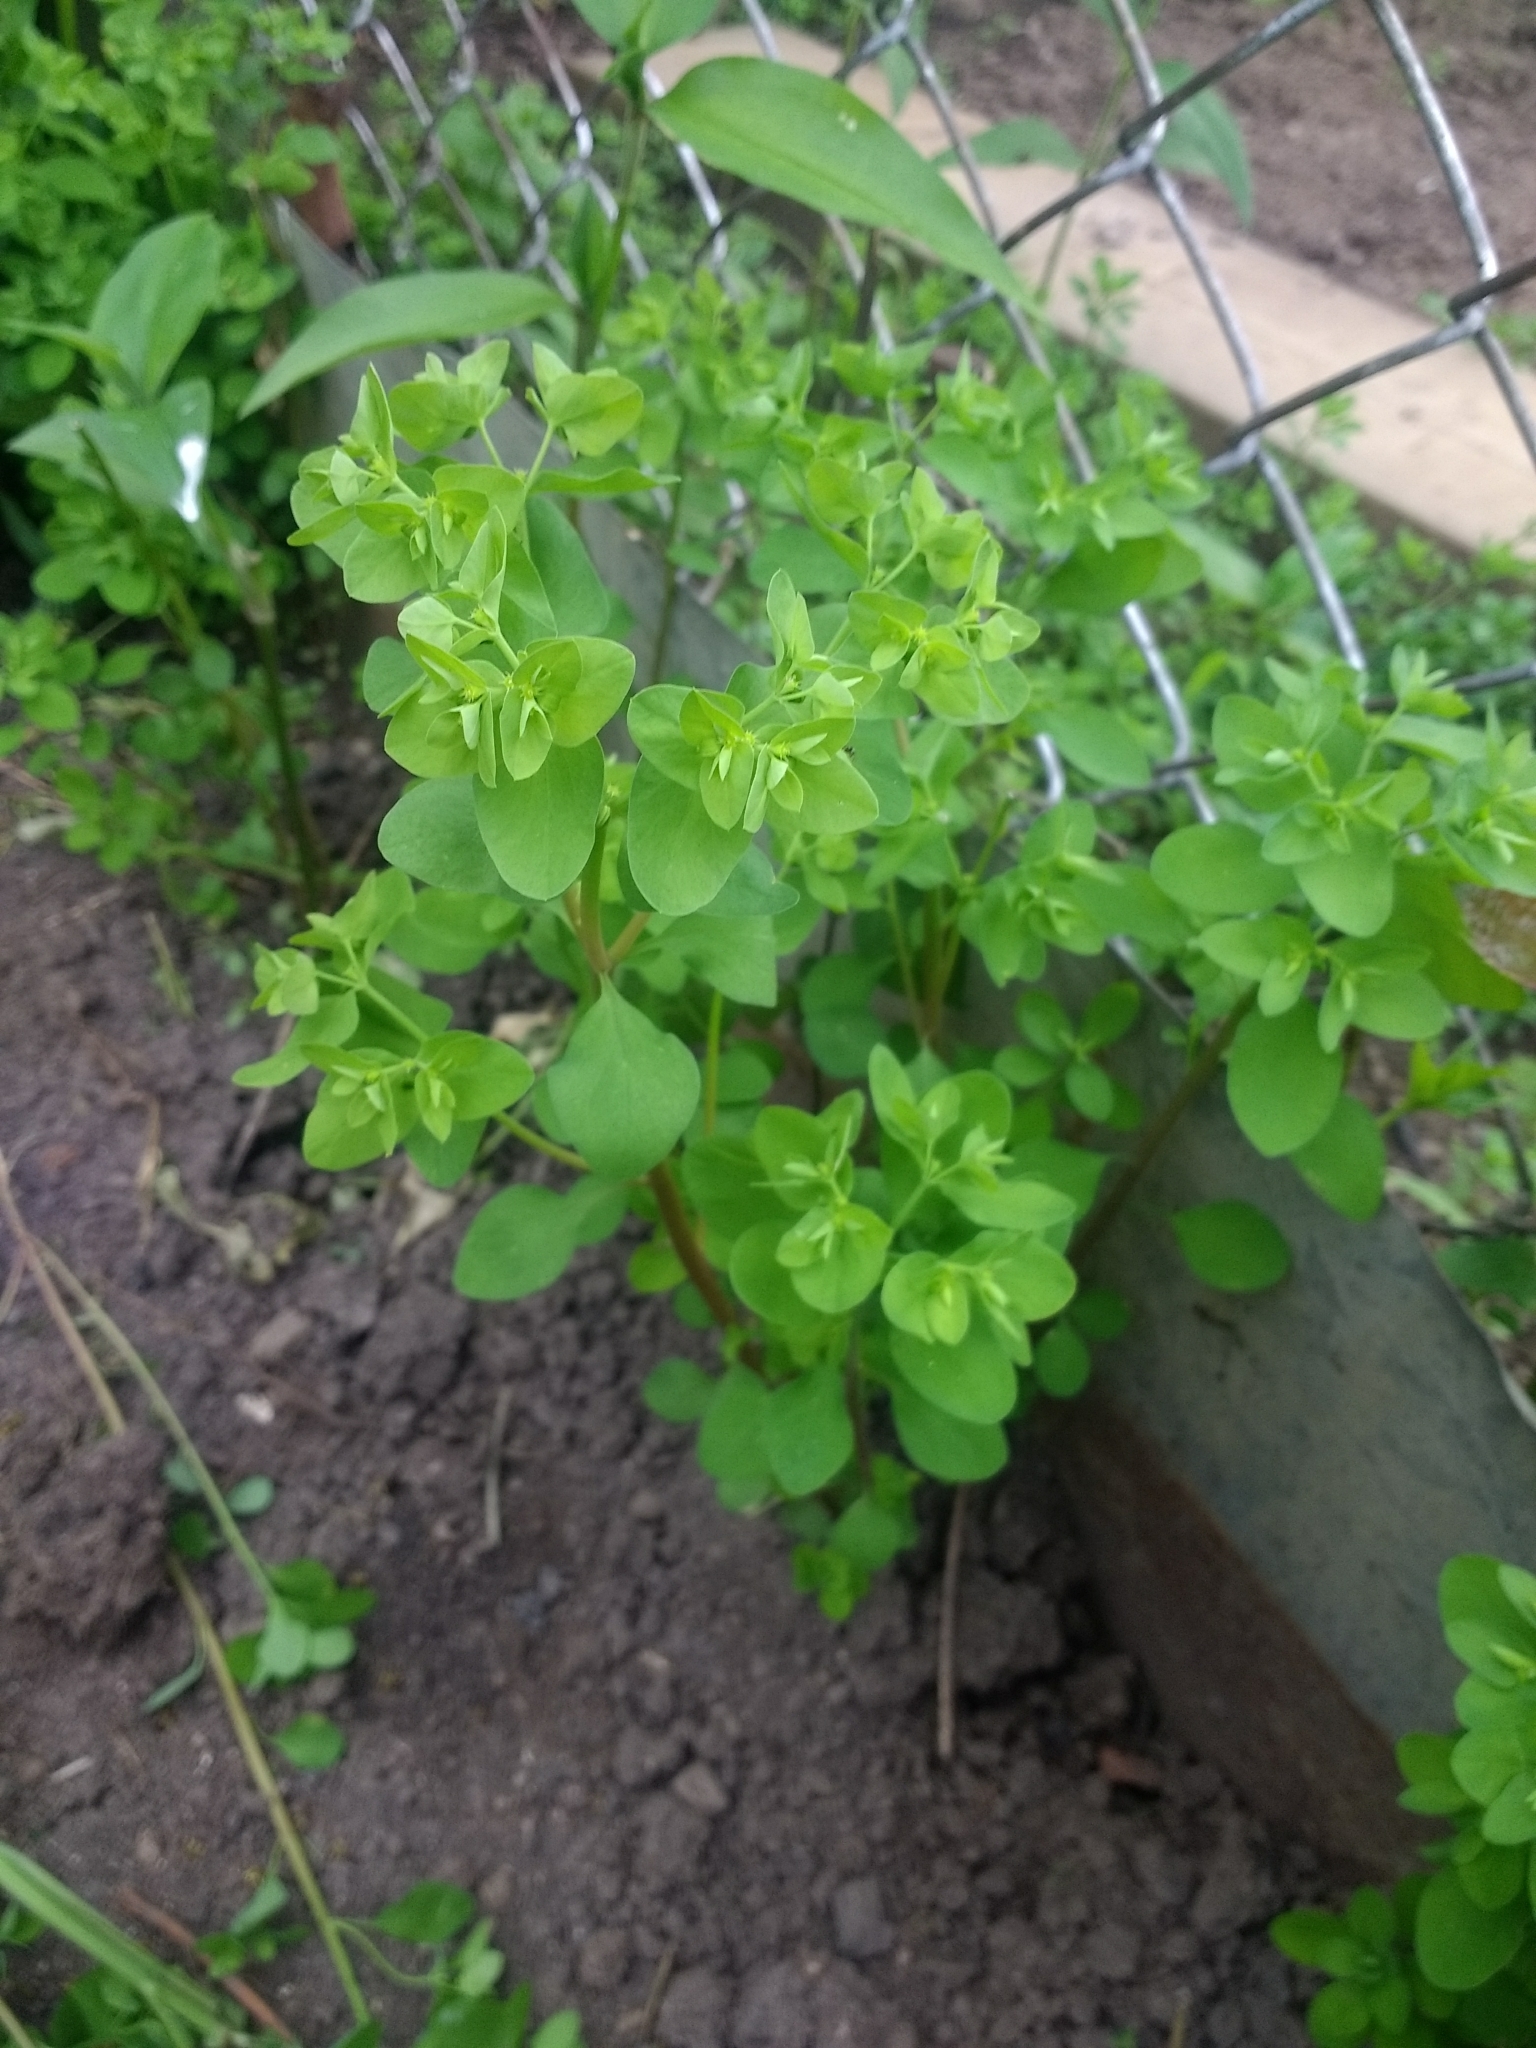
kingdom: Plantae
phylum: Tracheophyta
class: Magnoliopsida
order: Malpighiales
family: Euphorbiaceae
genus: Euphorbia
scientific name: Euphorbia peplus
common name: Petty spurge
